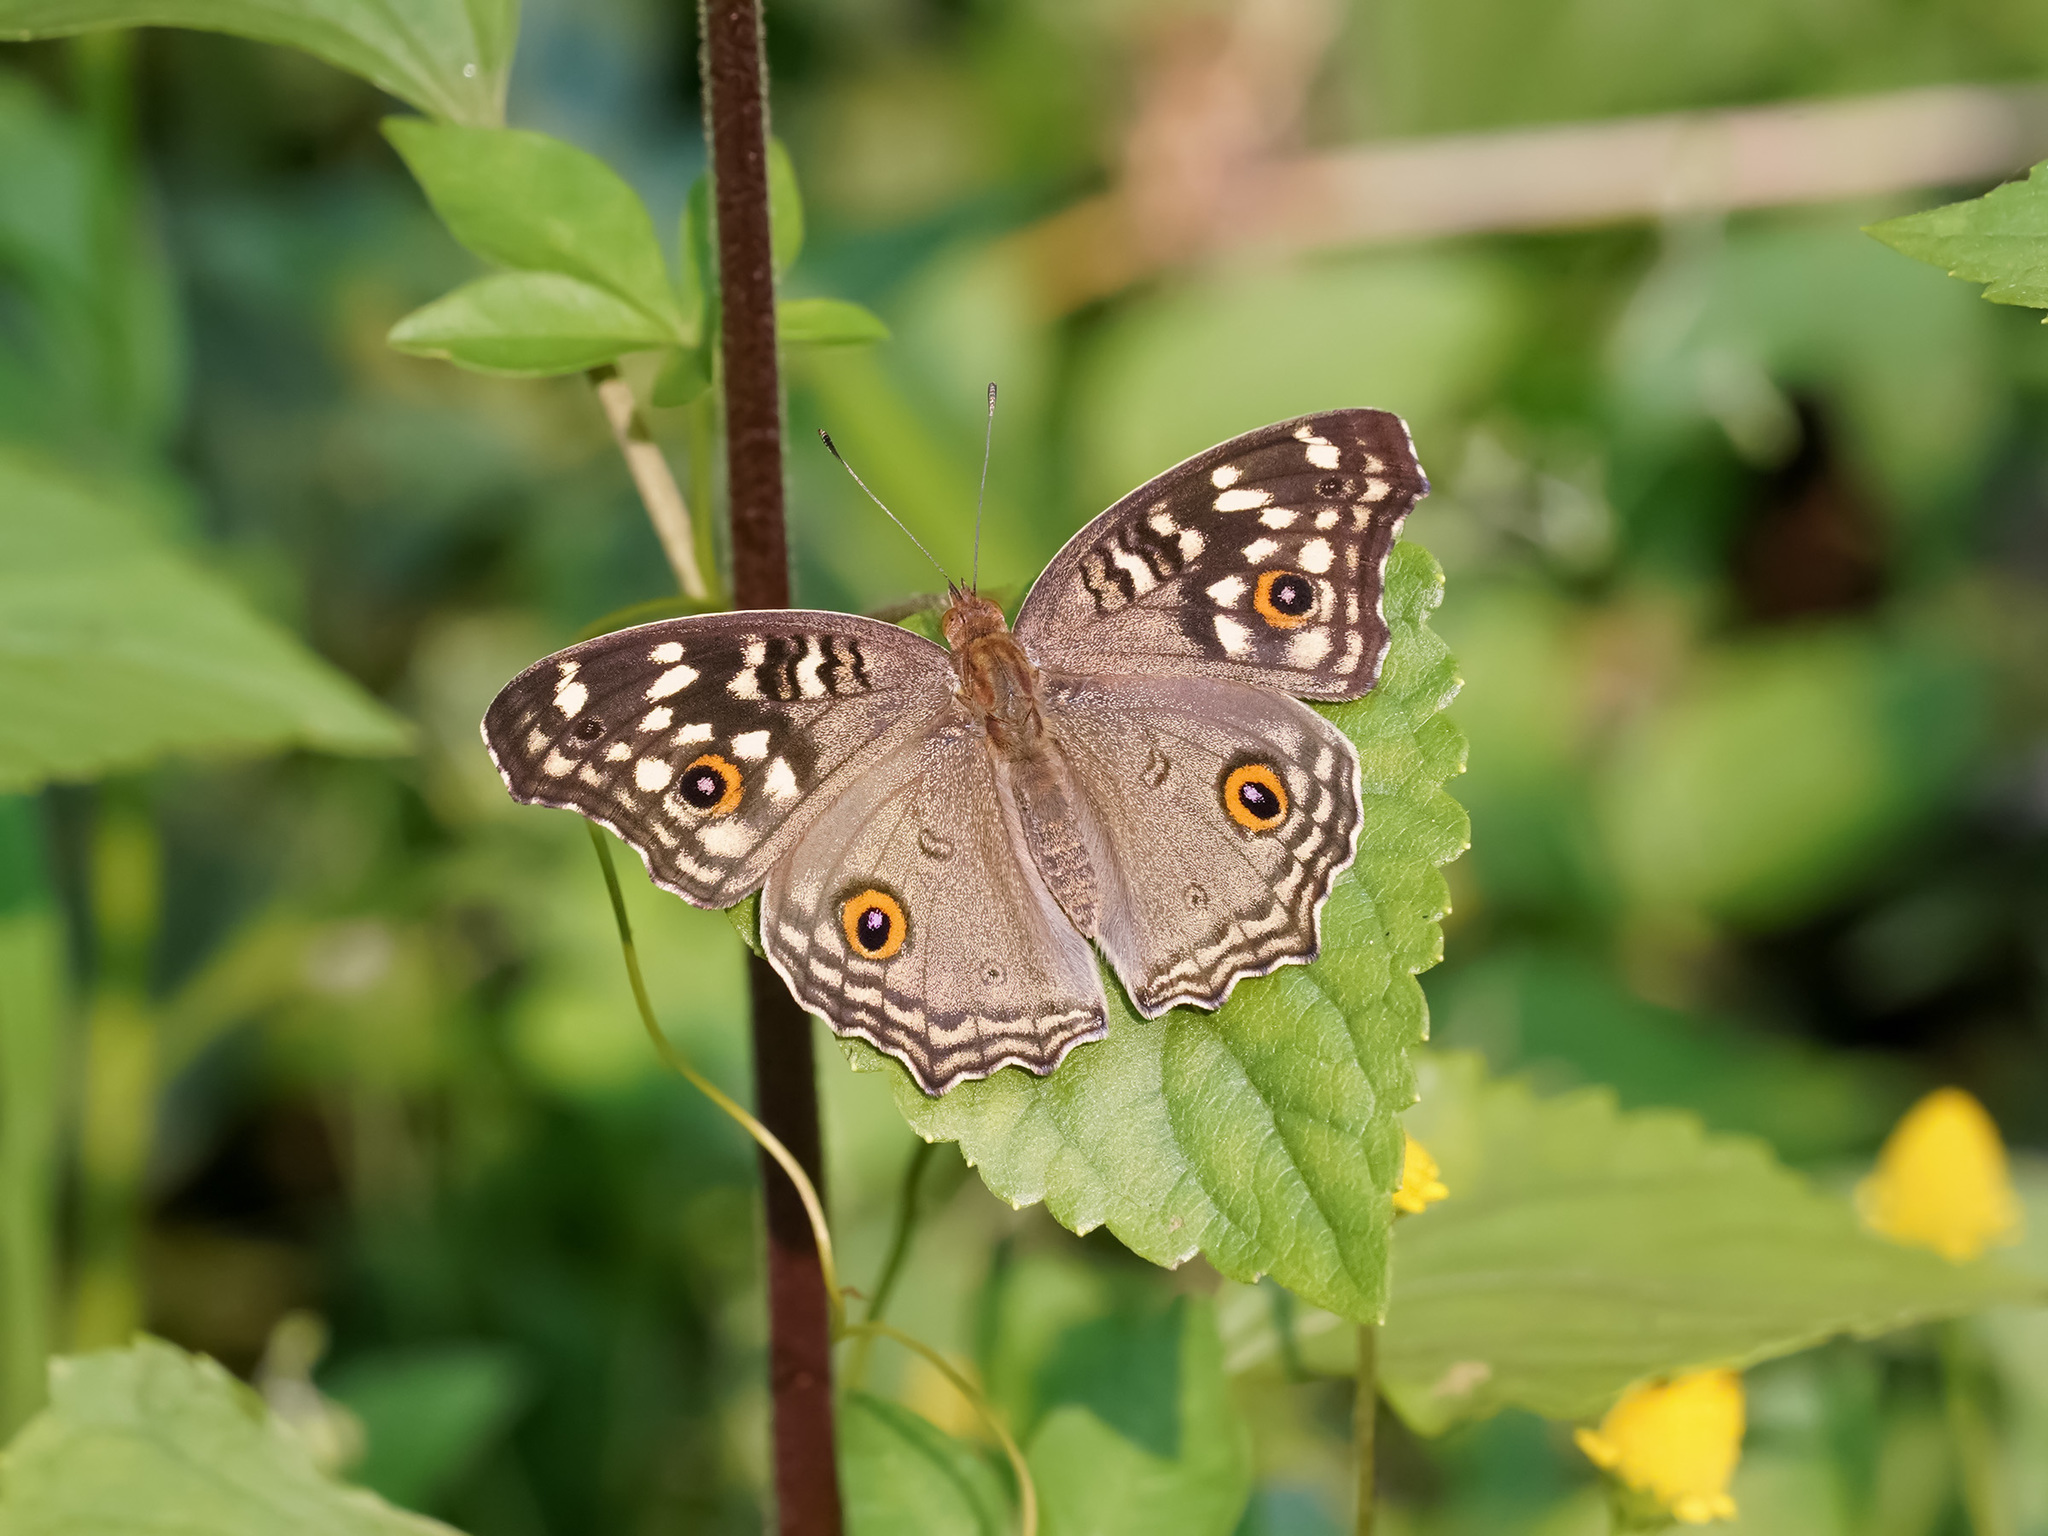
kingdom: Animalia
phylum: Arthropoda
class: Insecta
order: Lepidoptera
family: Nymphalidae
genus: Junonia
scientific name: Junonia lemonias
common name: Lemon pansy
